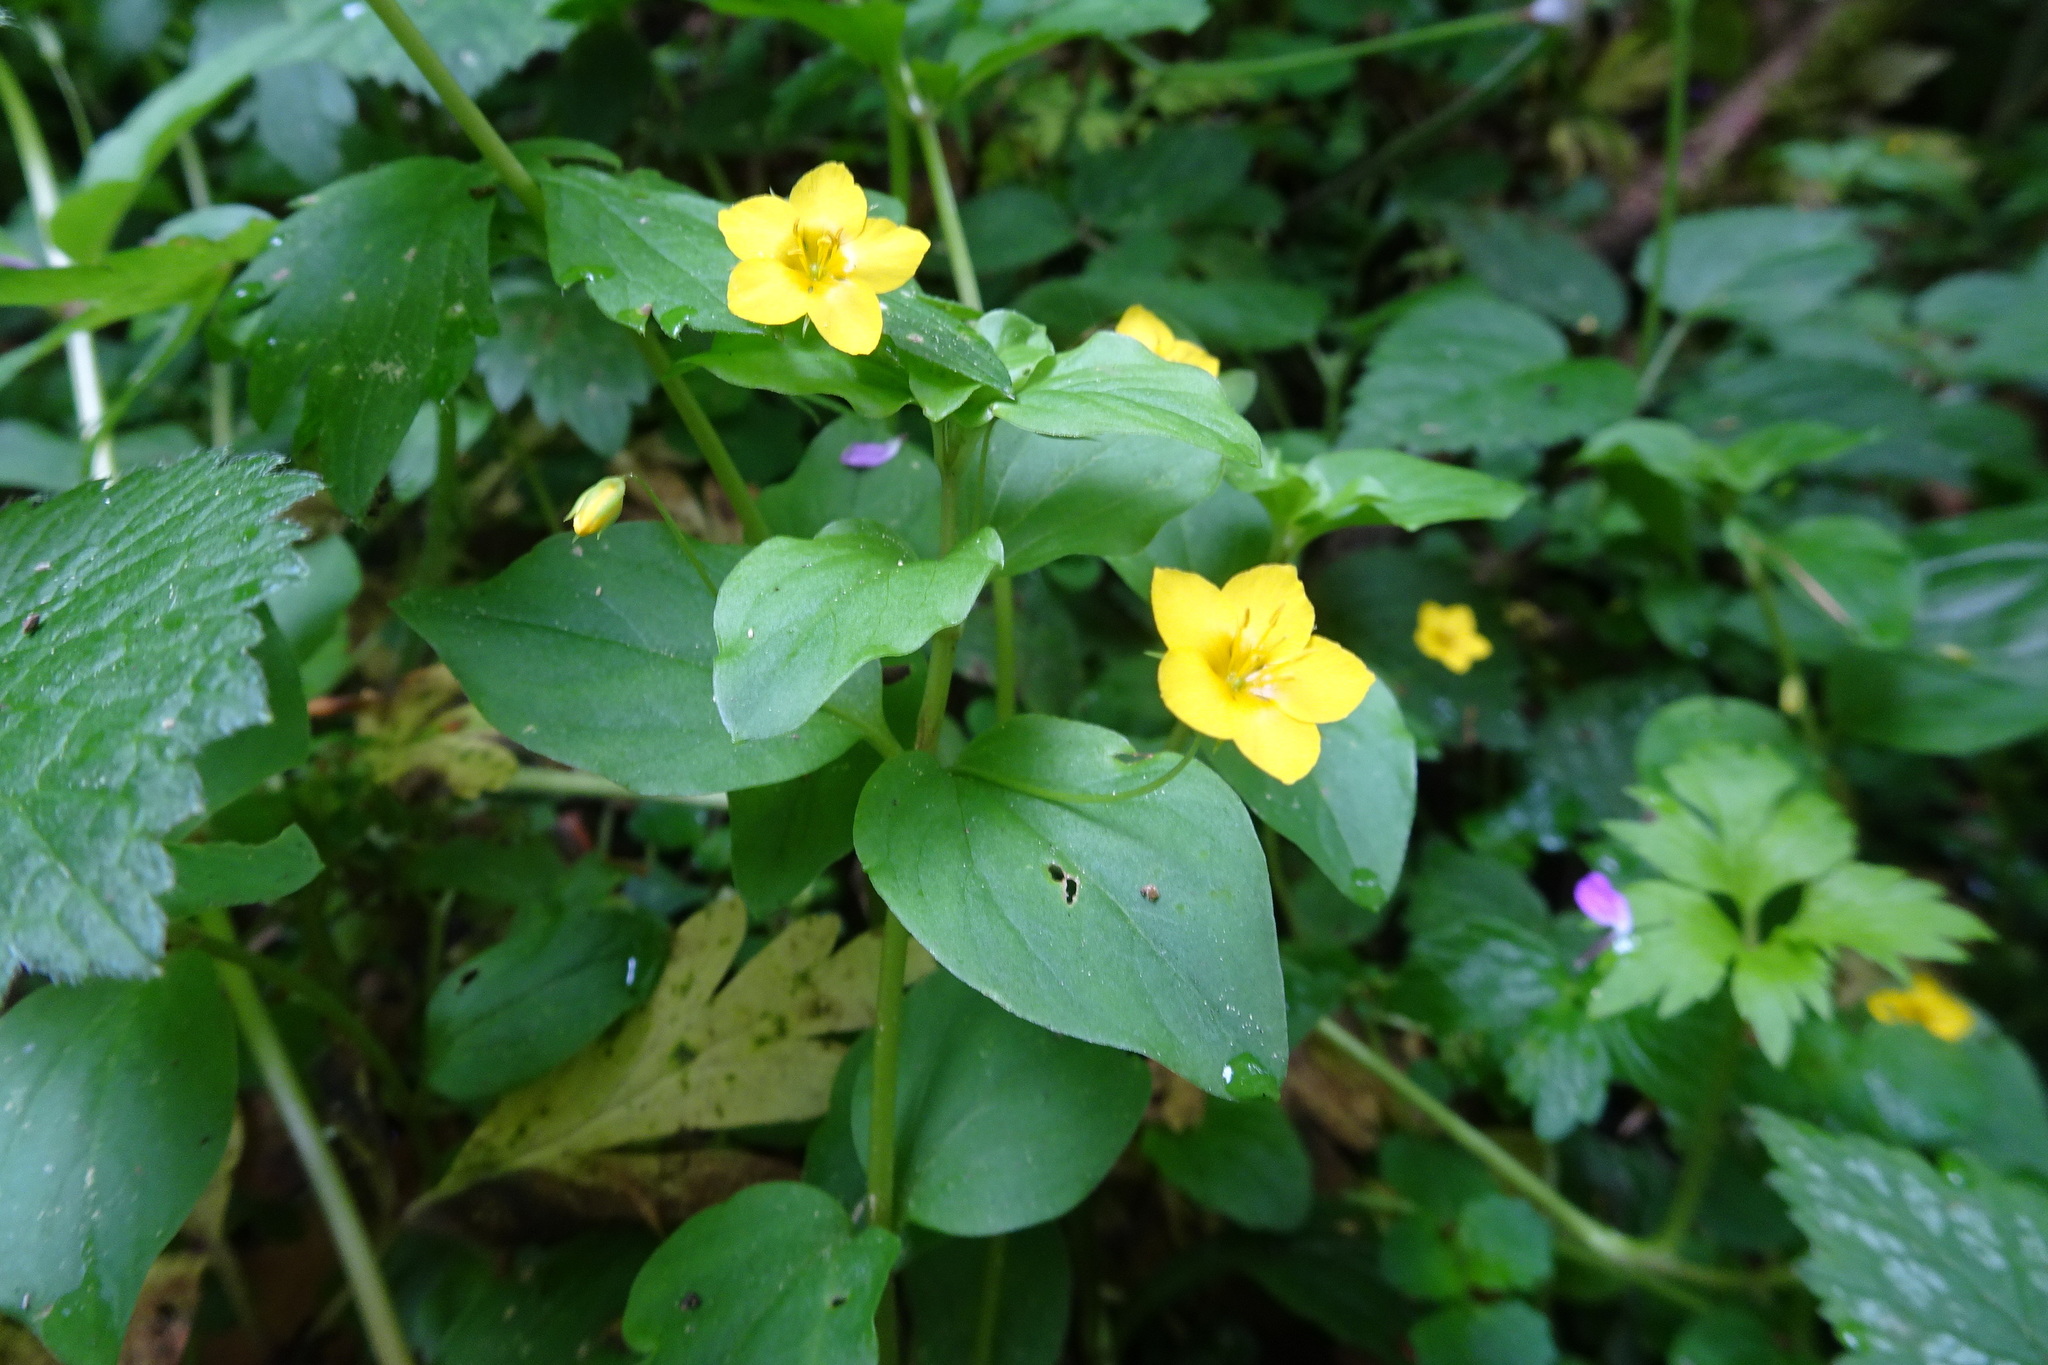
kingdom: Plantae
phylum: Tracheophyta
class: Magnoliopsida
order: Ericales
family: Primulaceae
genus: Lysimachia
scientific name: Lysimachia nemorum
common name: Yellow pimpernel
